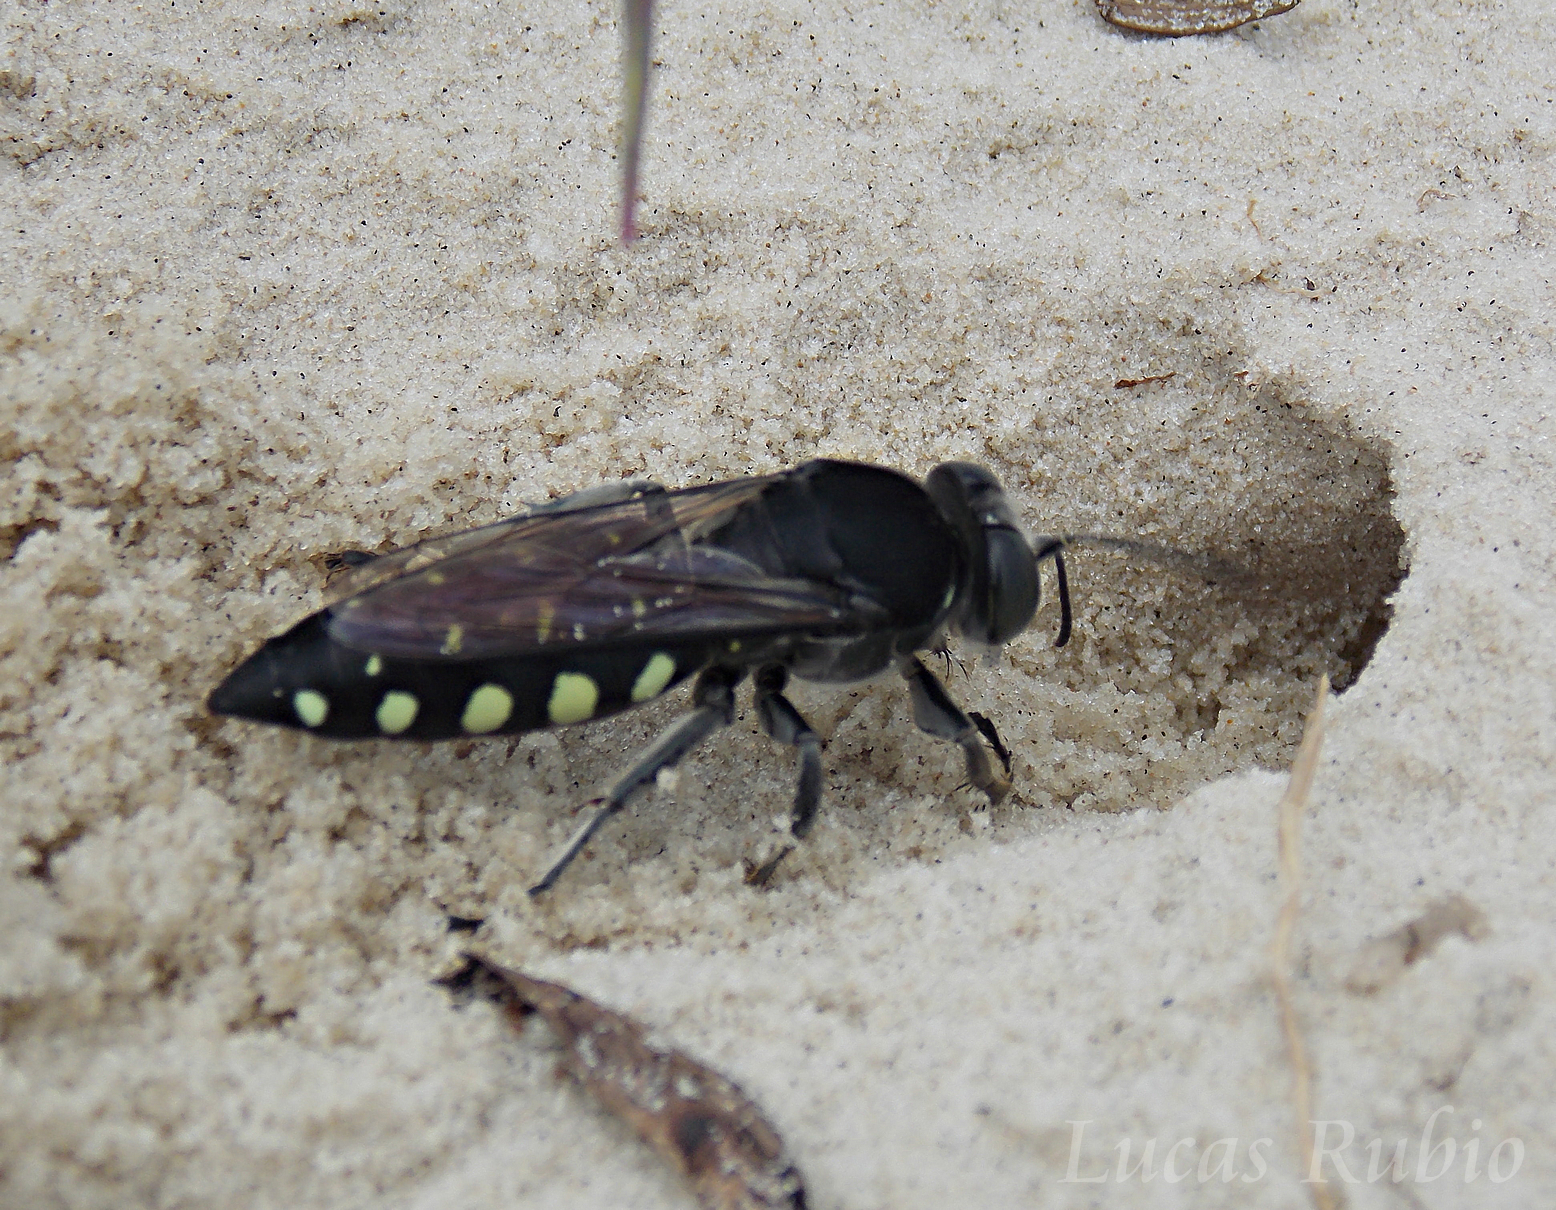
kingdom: Animalia
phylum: Arthropoda
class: Insecta
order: Hymenoptera
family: Crabronidae
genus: Stictia
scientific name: Stictia punctata
